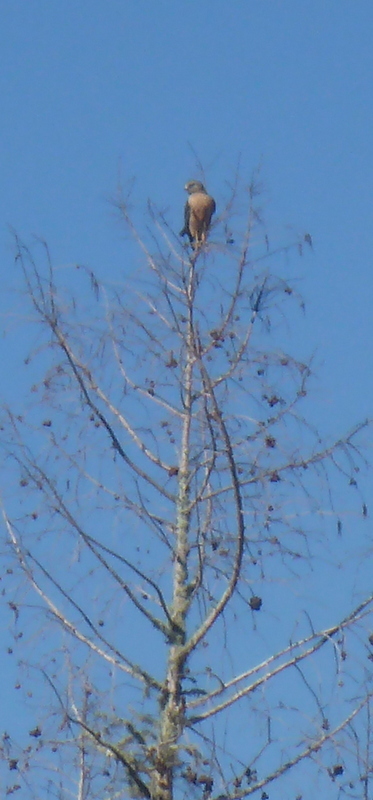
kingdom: Animalia
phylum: Chordata
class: Aves
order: Accipitriformes
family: Accipitridae
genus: Buteo
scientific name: Buteo lineatus
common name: Red-shouldered hawk
